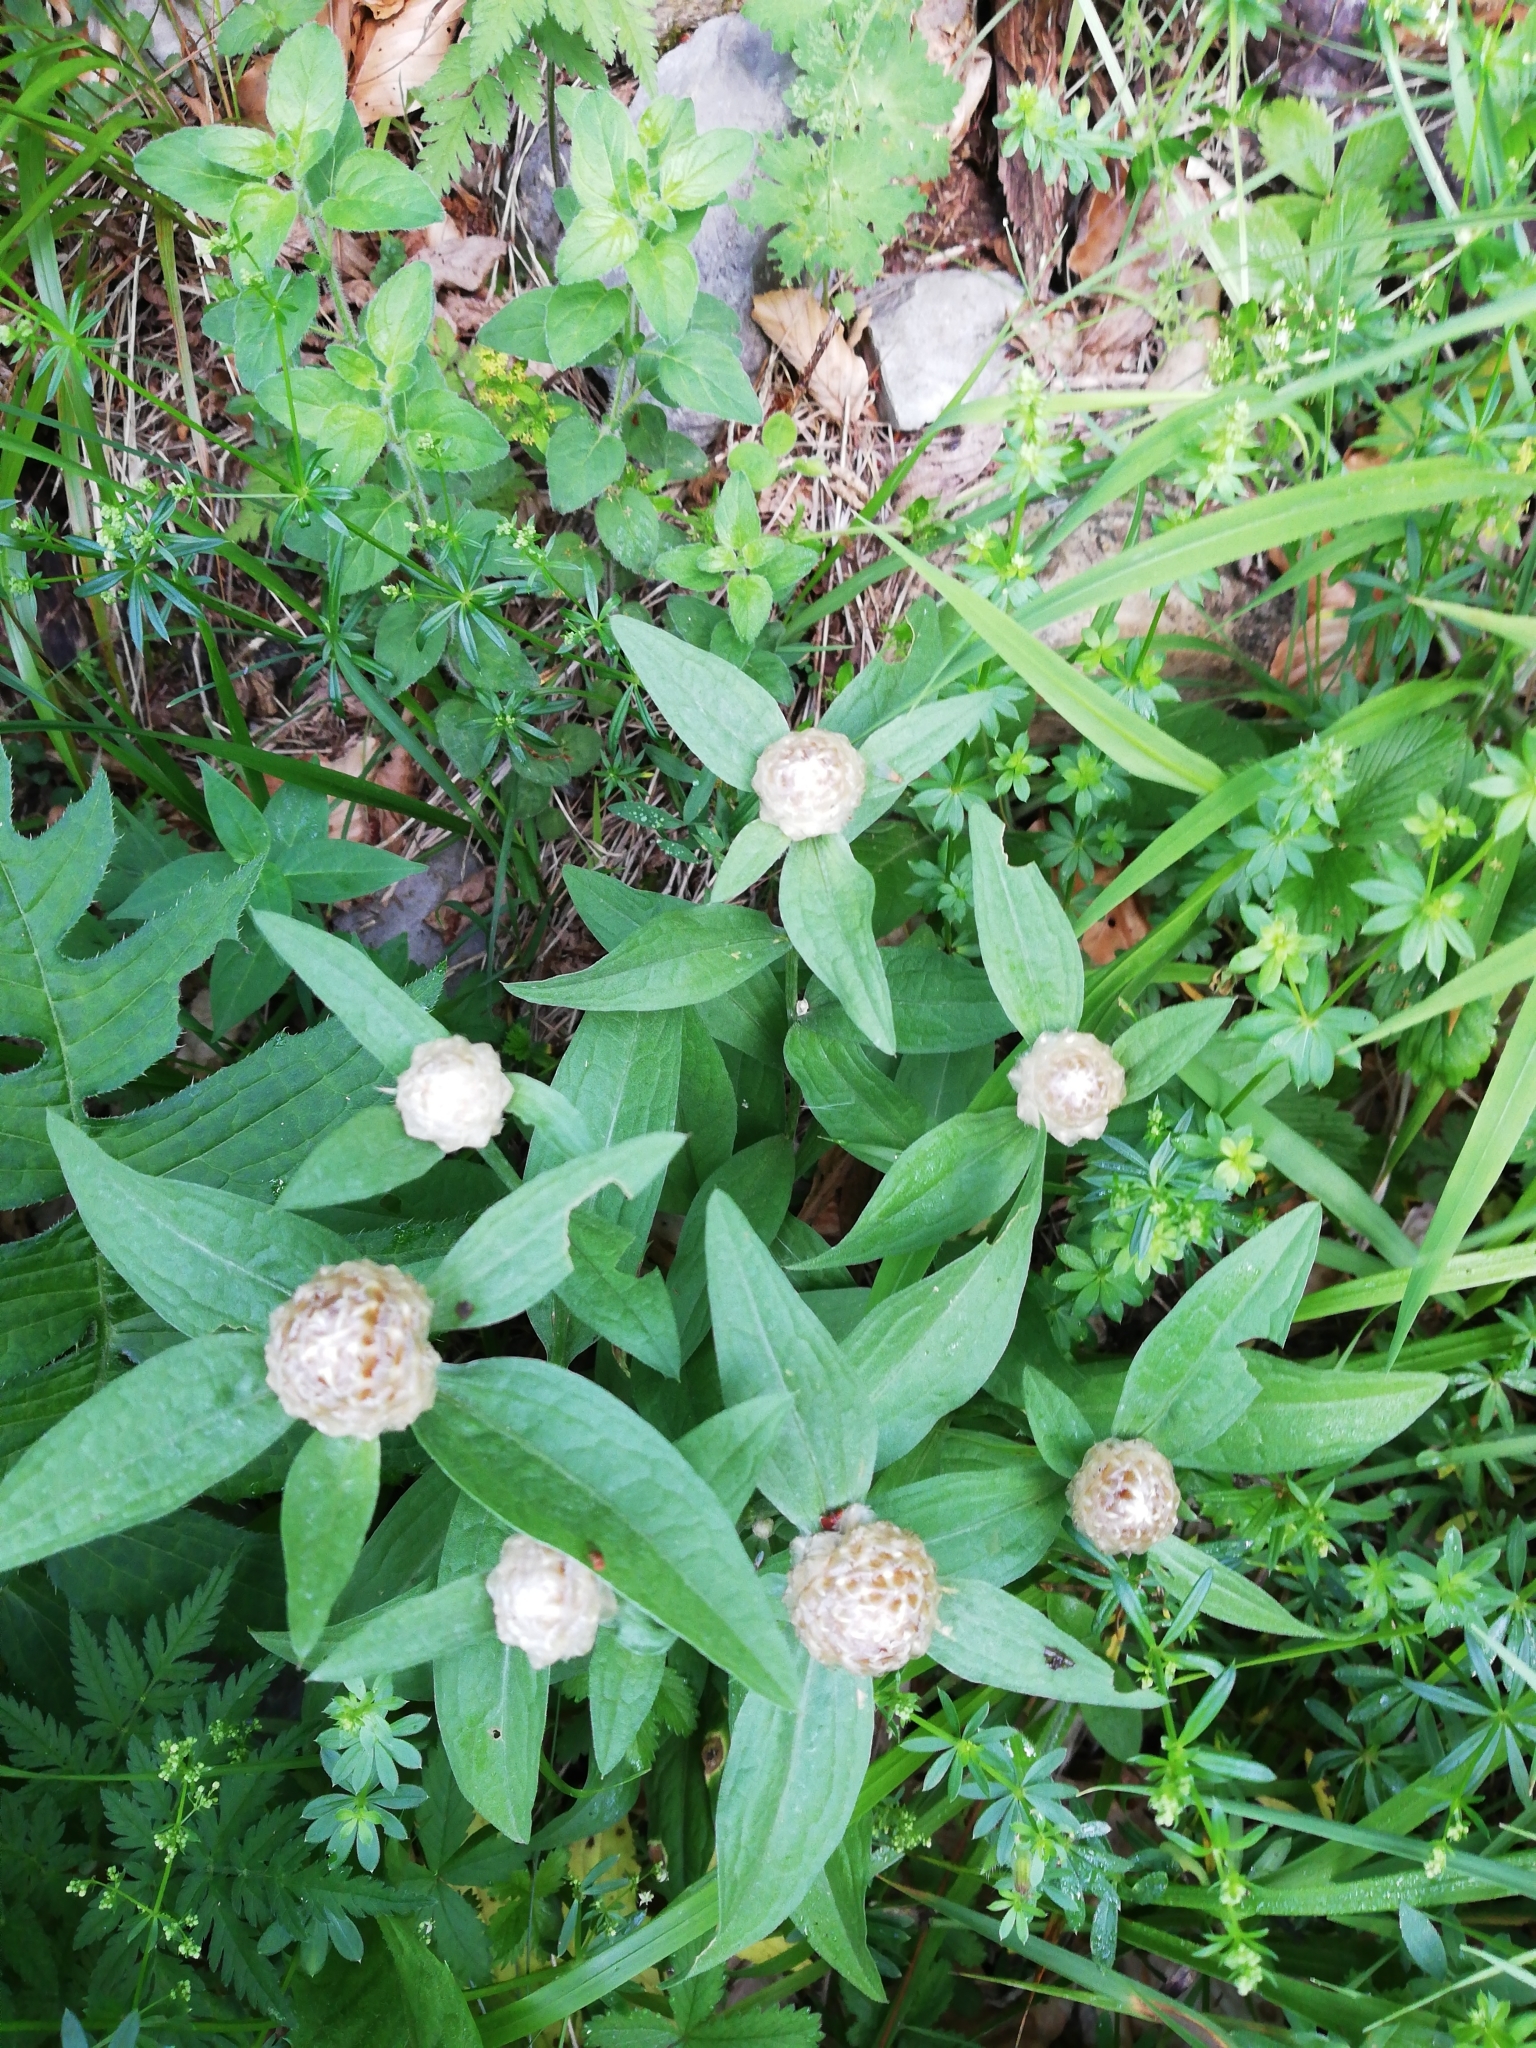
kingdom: Plantae
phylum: Tracheophyta
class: Magnoliopsida
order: Asterales
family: Asteraceae
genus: Centaurea
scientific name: Centaurea jacea
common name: Brown knapweed
